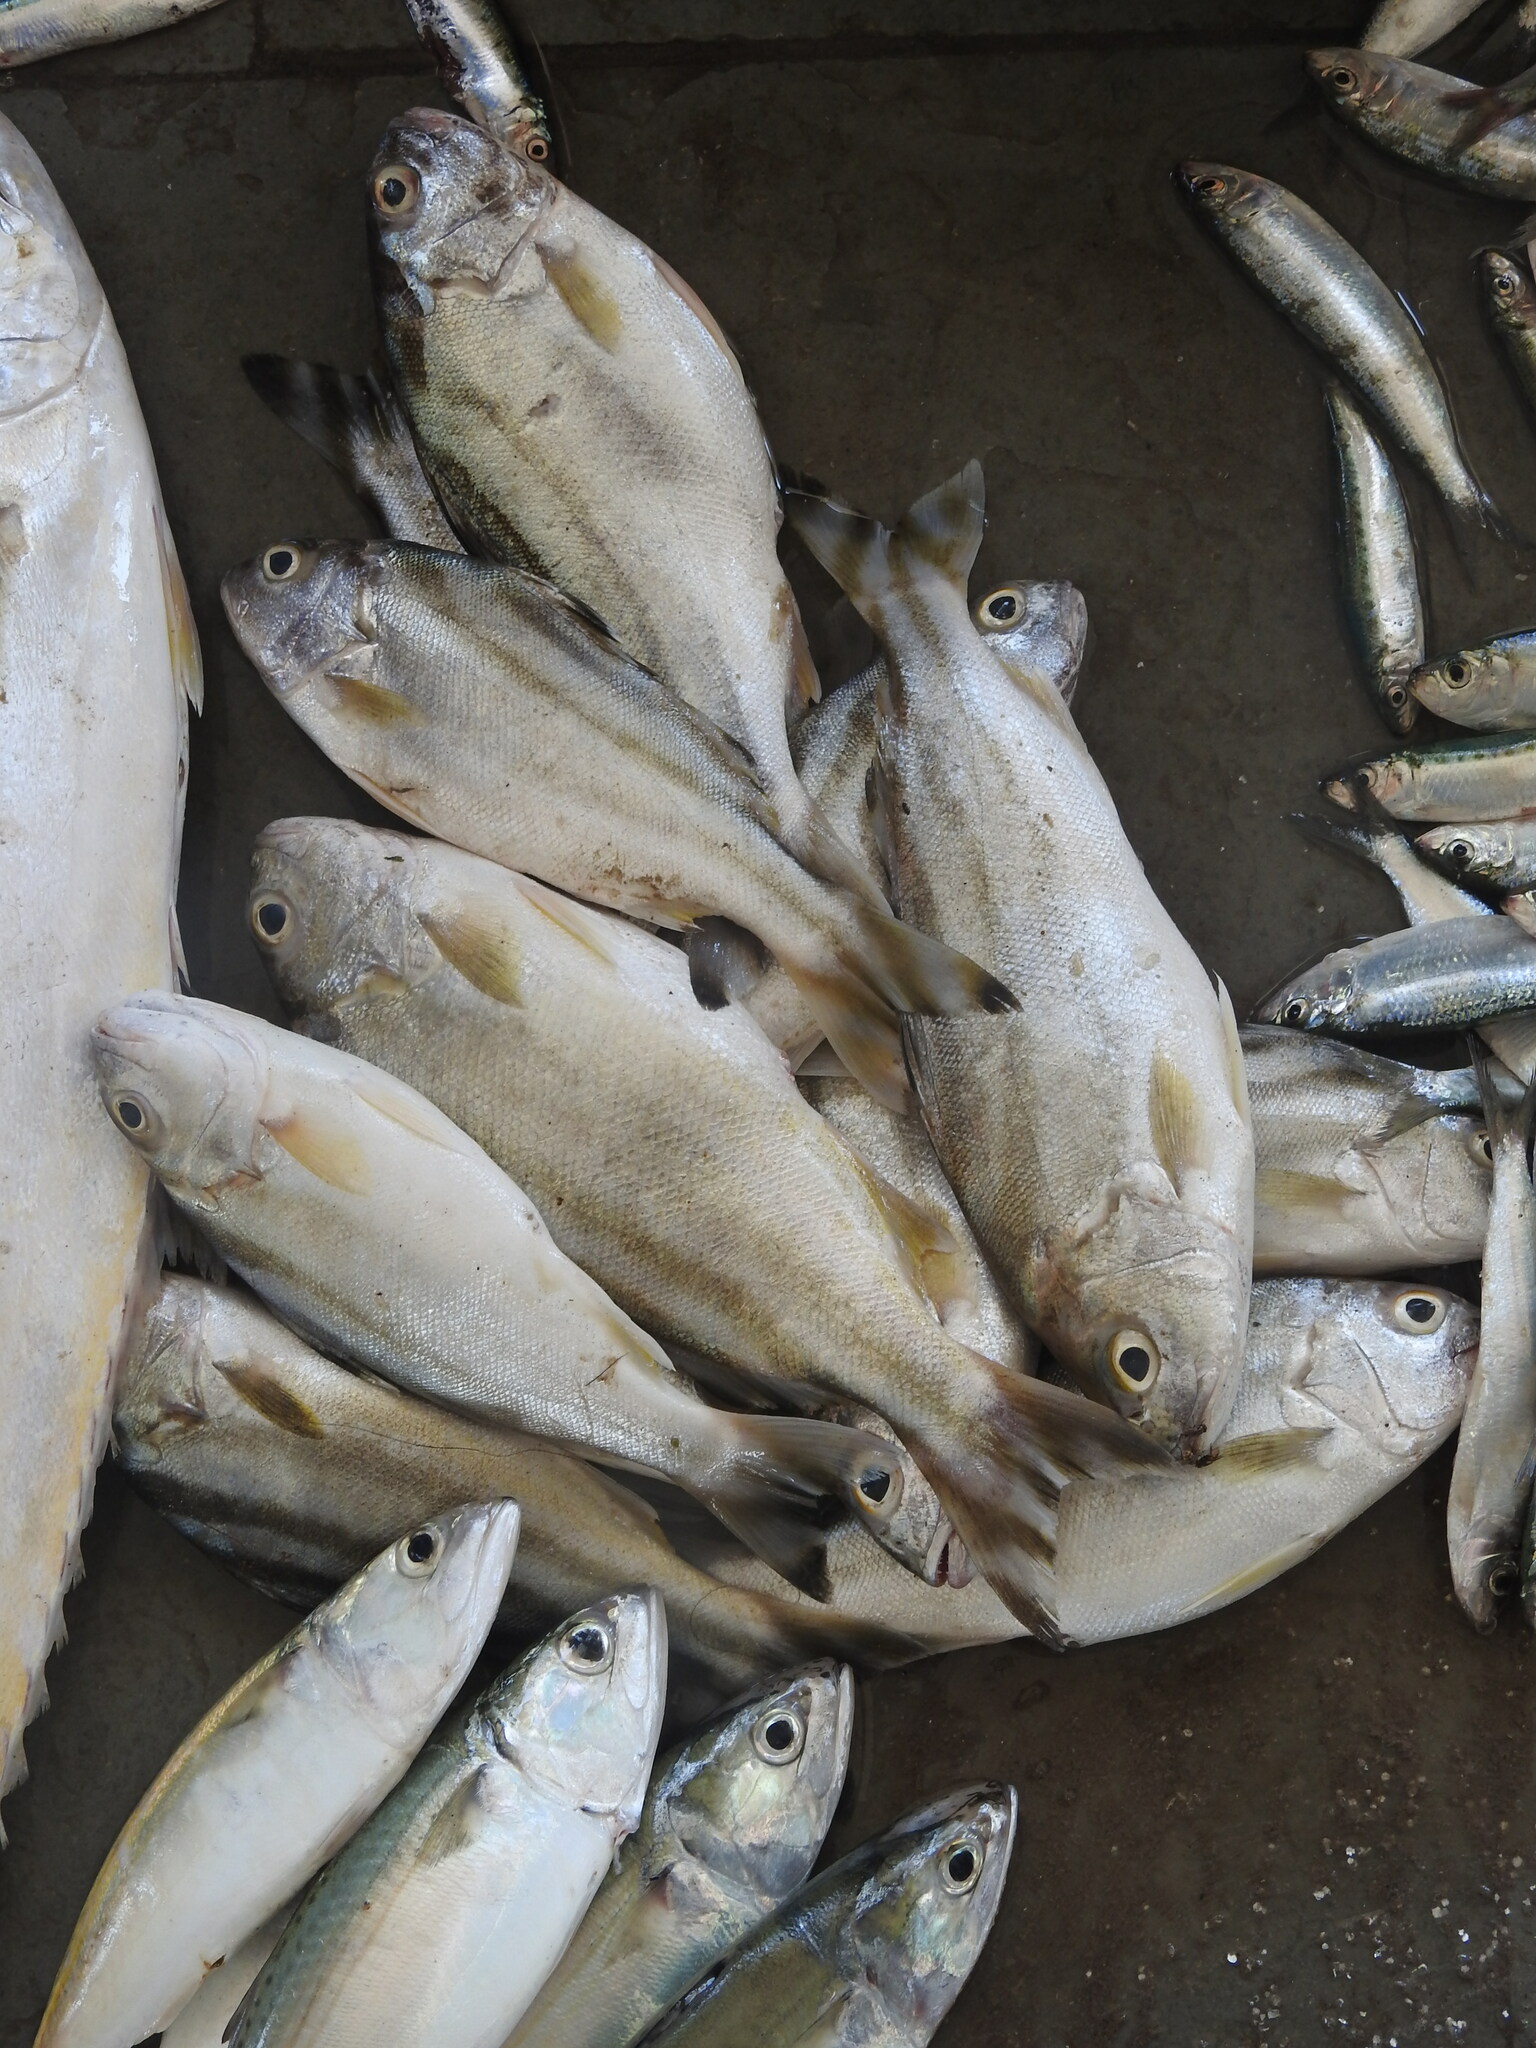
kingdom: Animalia
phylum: Chordata
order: Perciformes
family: Terapontidae
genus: Terapon
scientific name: Terapon jarbua
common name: Jarbua terapon
